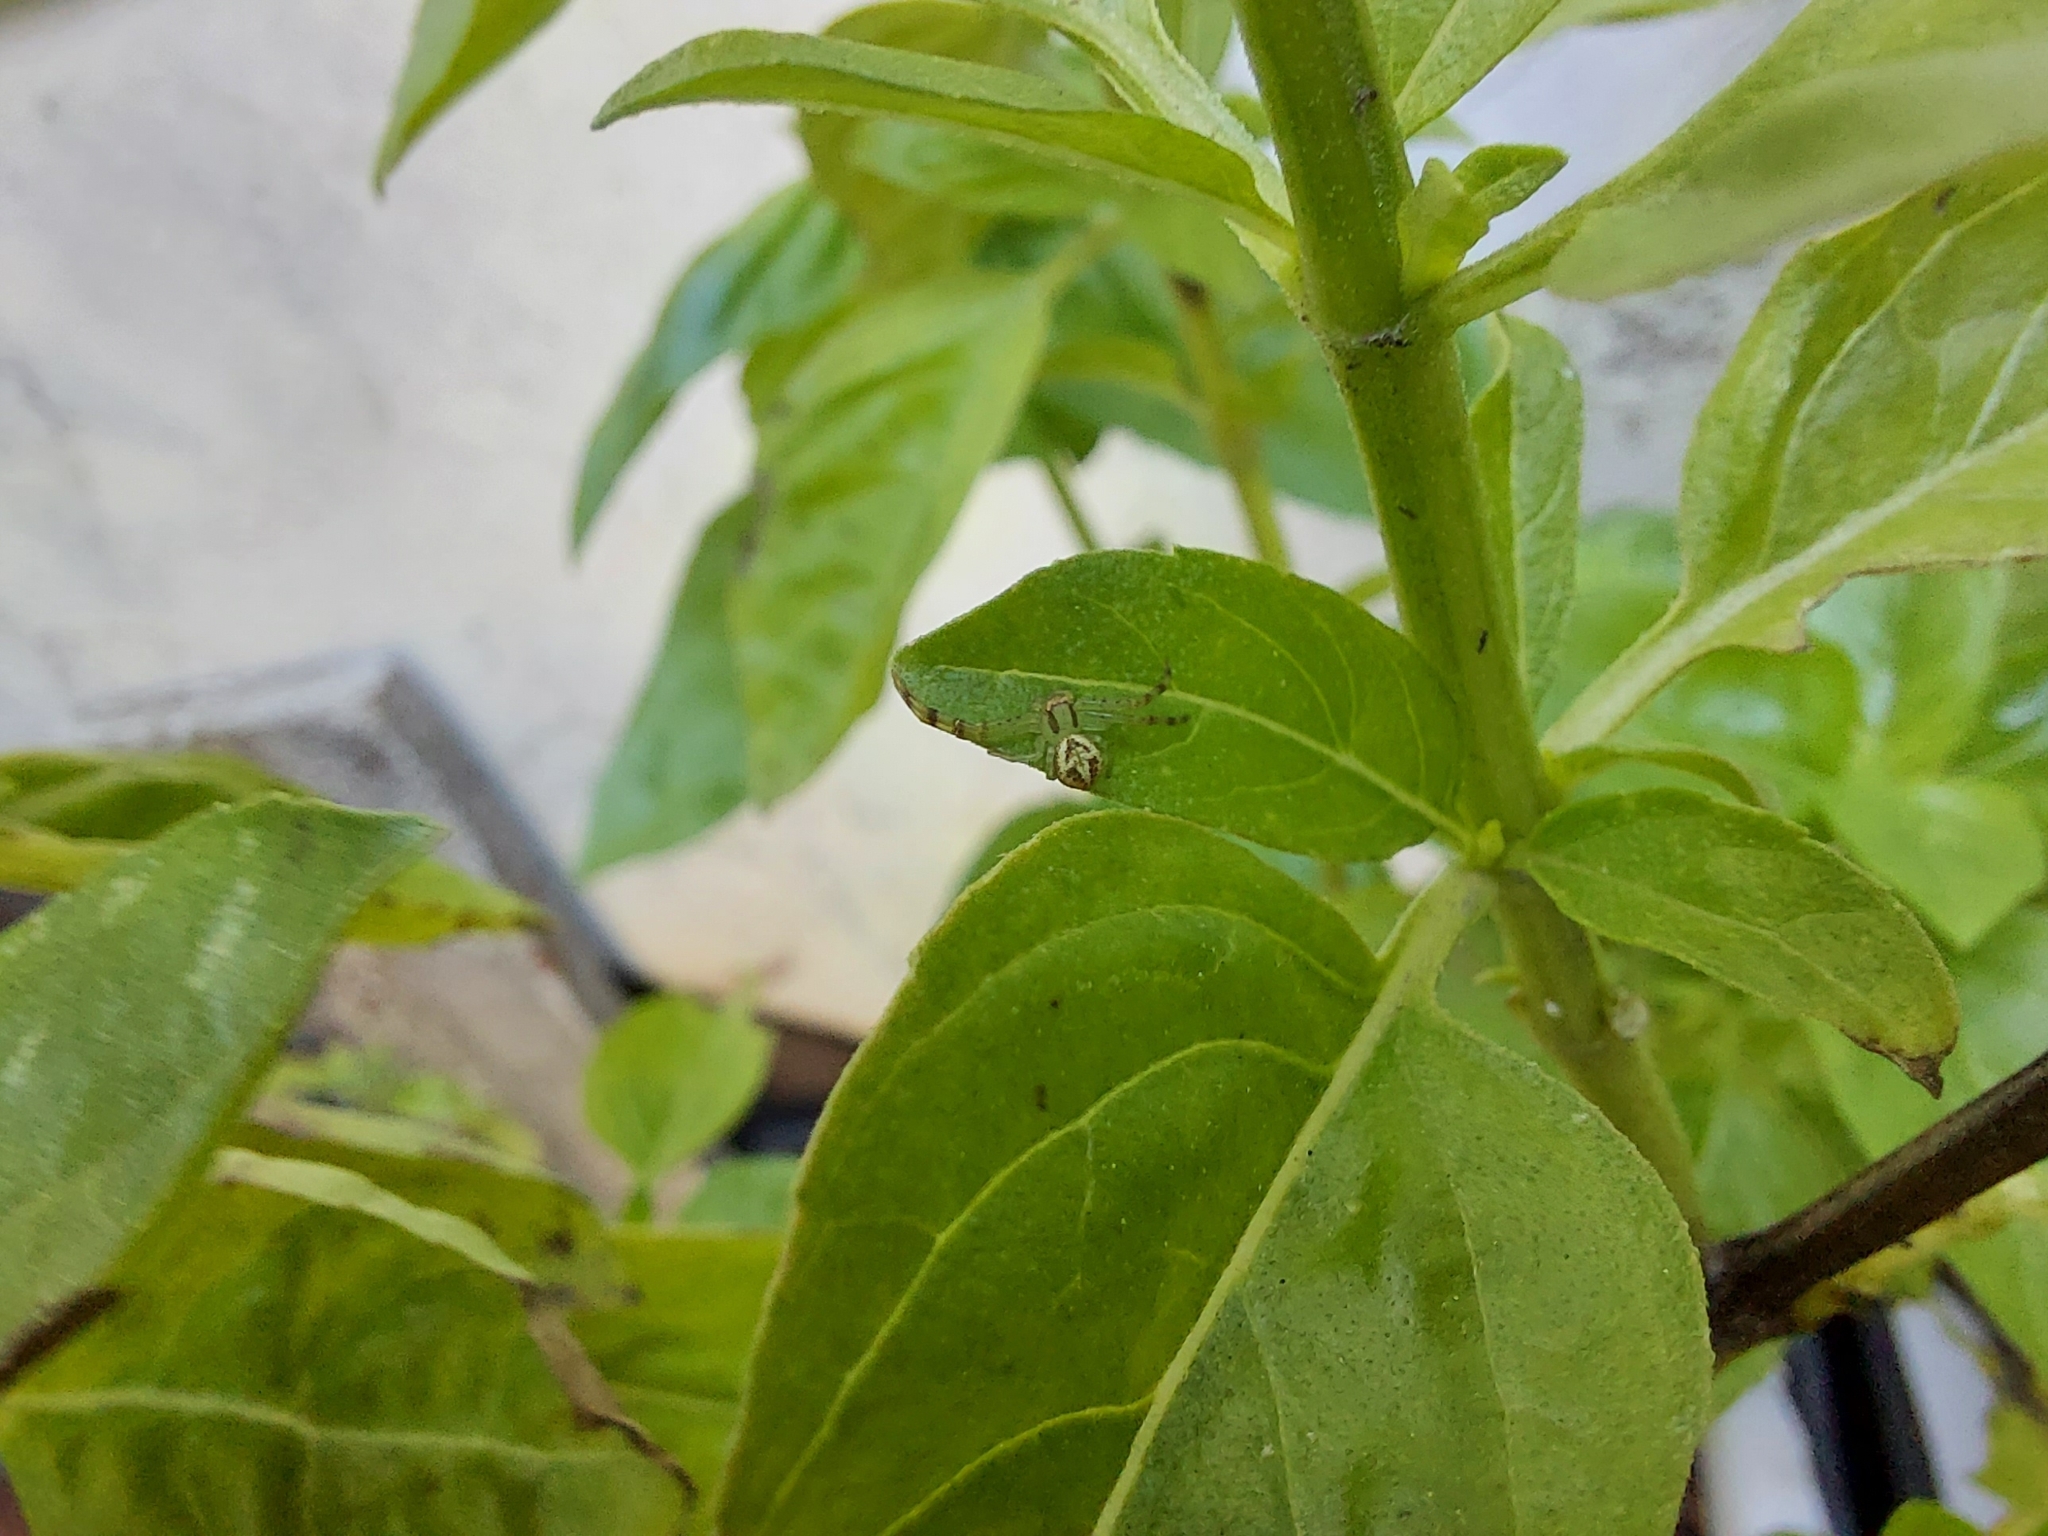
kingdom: Animalia
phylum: Arthropoda
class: Arachnida
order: Araneae
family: Thomisidae
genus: Misumenops
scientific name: Misumenops
